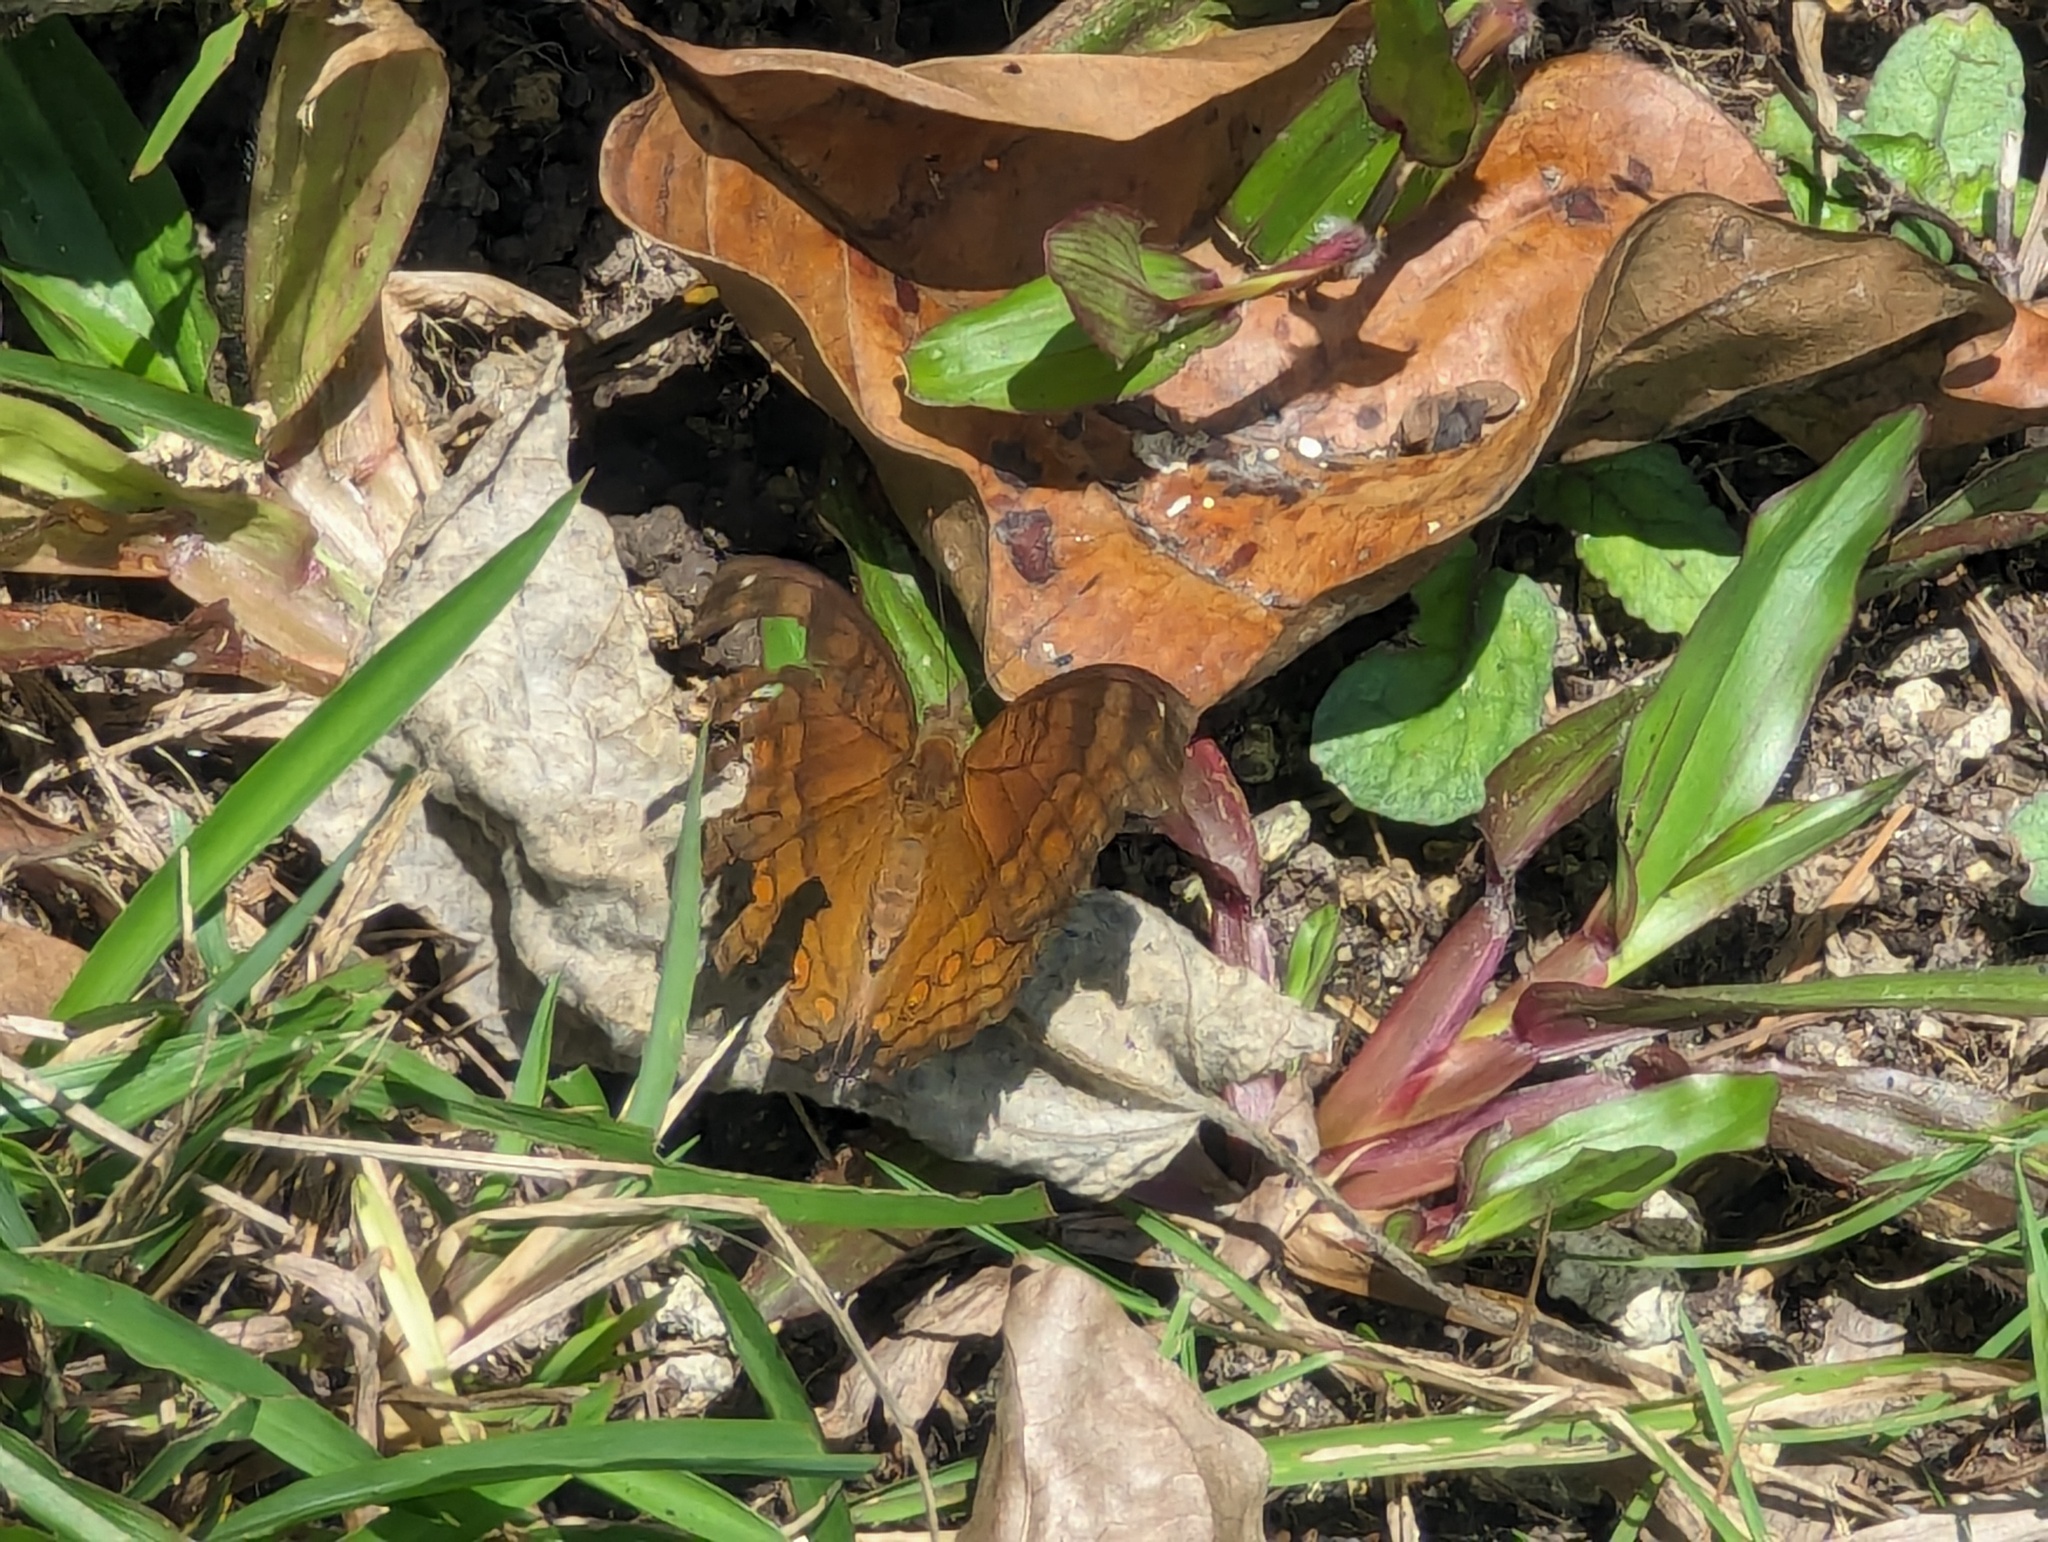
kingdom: Animalia
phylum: Arthropoda
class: Insecta
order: Lepidoptera
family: Nymphalidae
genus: Junonia
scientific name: Junonia hedonia
